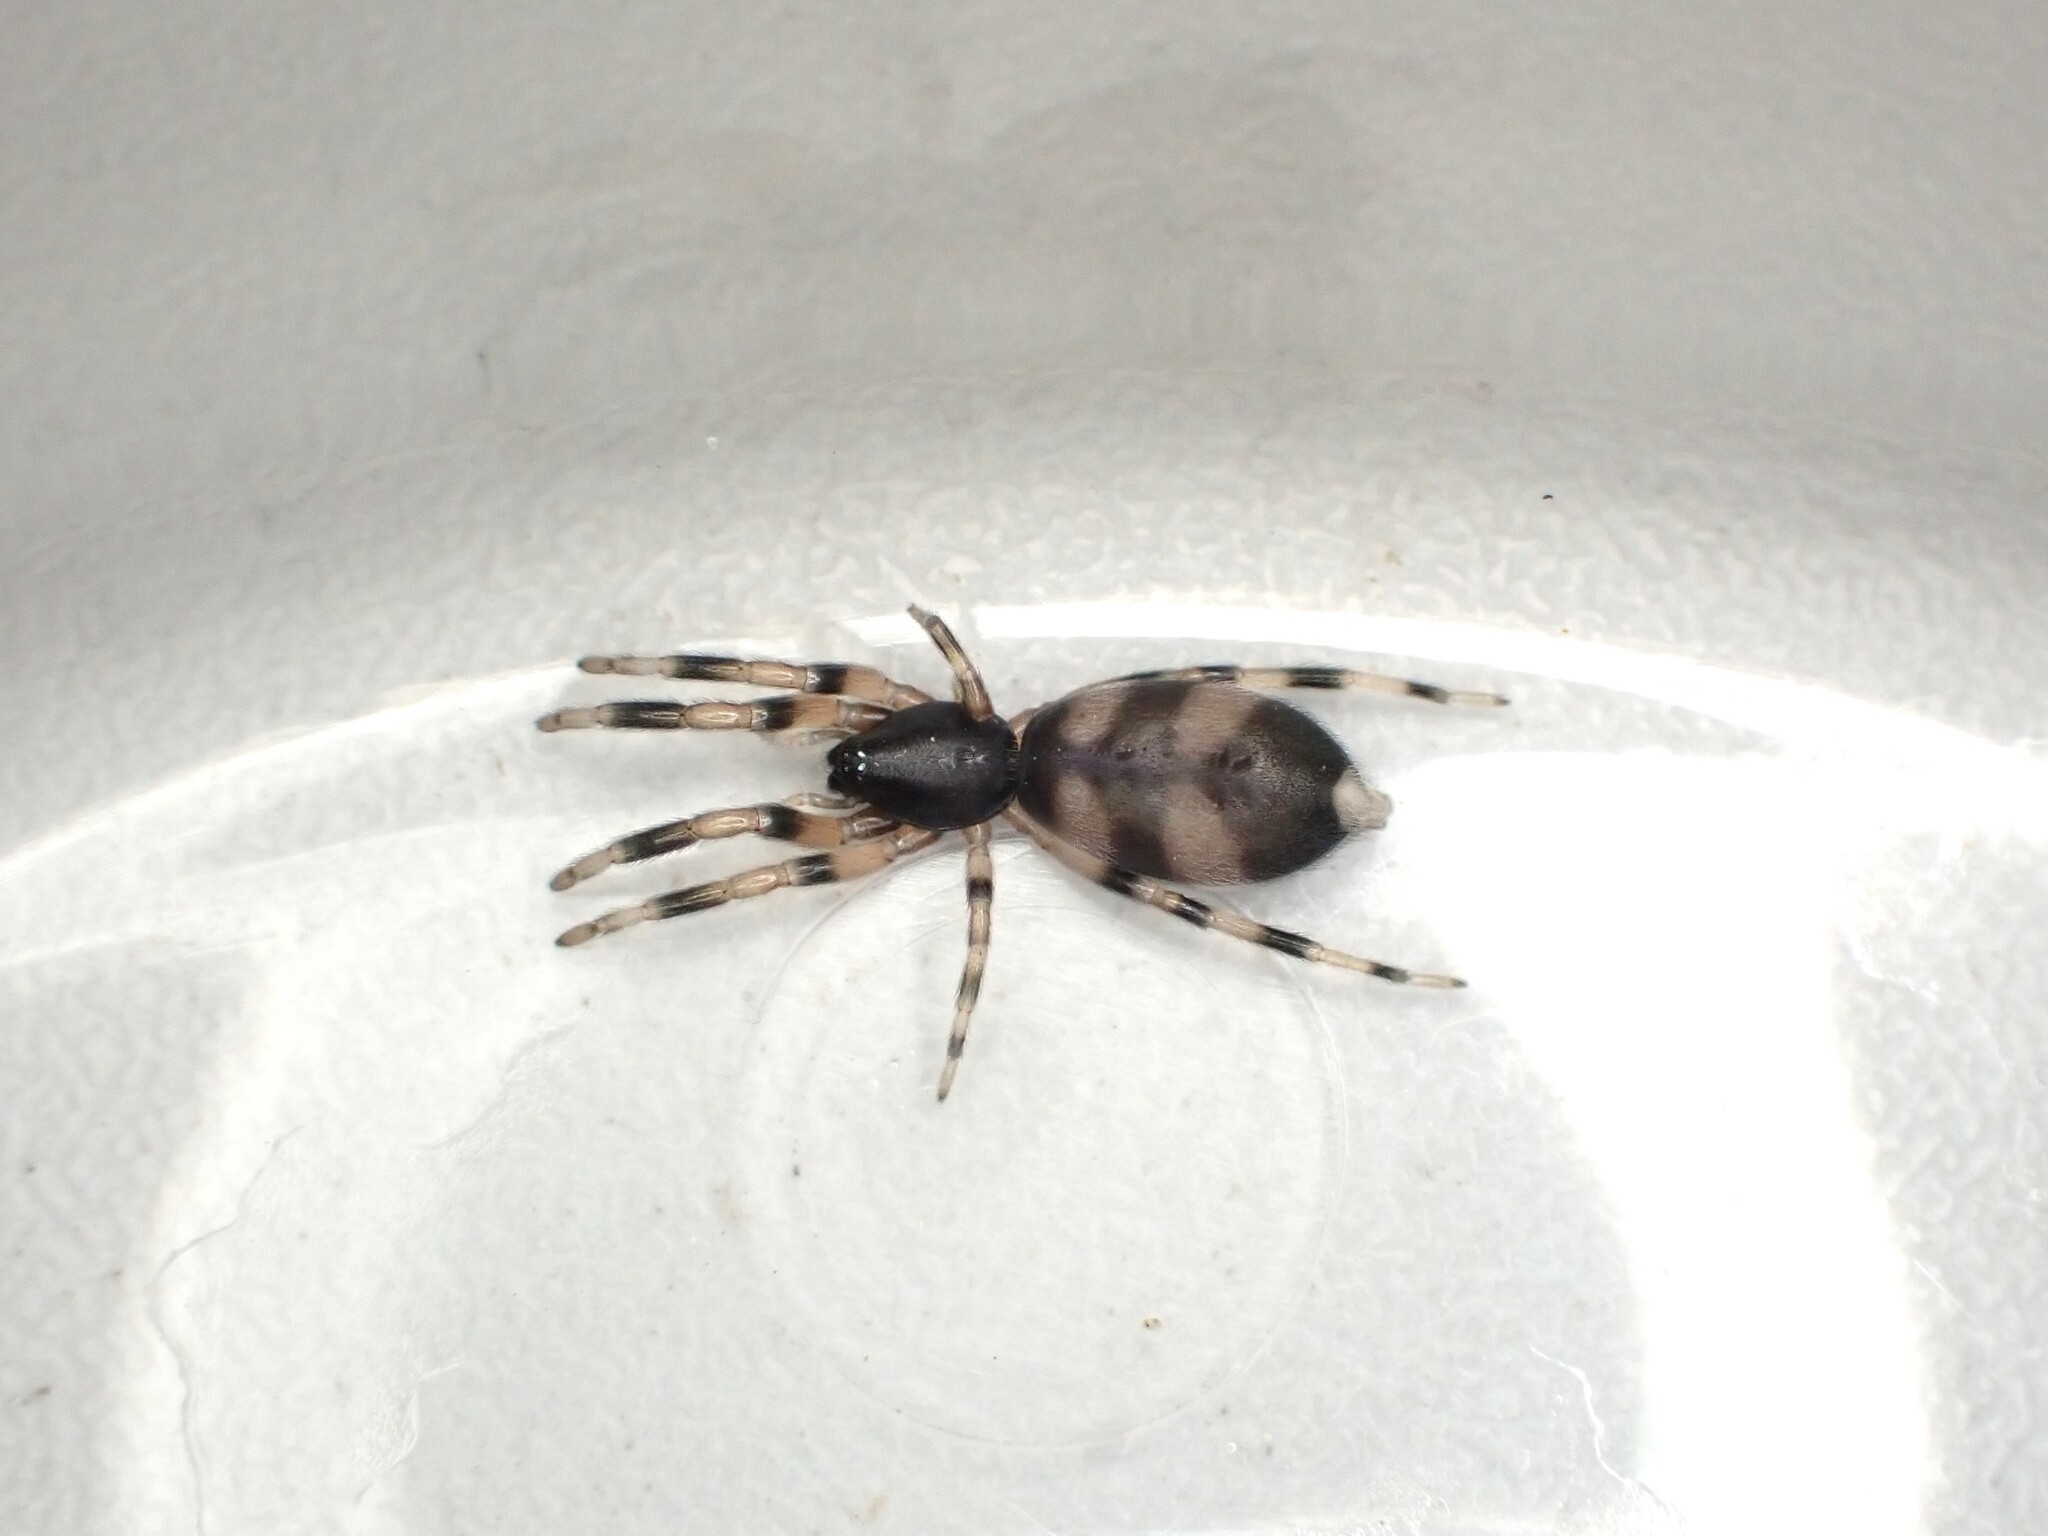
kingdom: Animalia
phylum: Arthropoda
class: Arachnida
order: Araneae
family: Lamponidae
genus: Lampona
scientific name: Lampona murina
